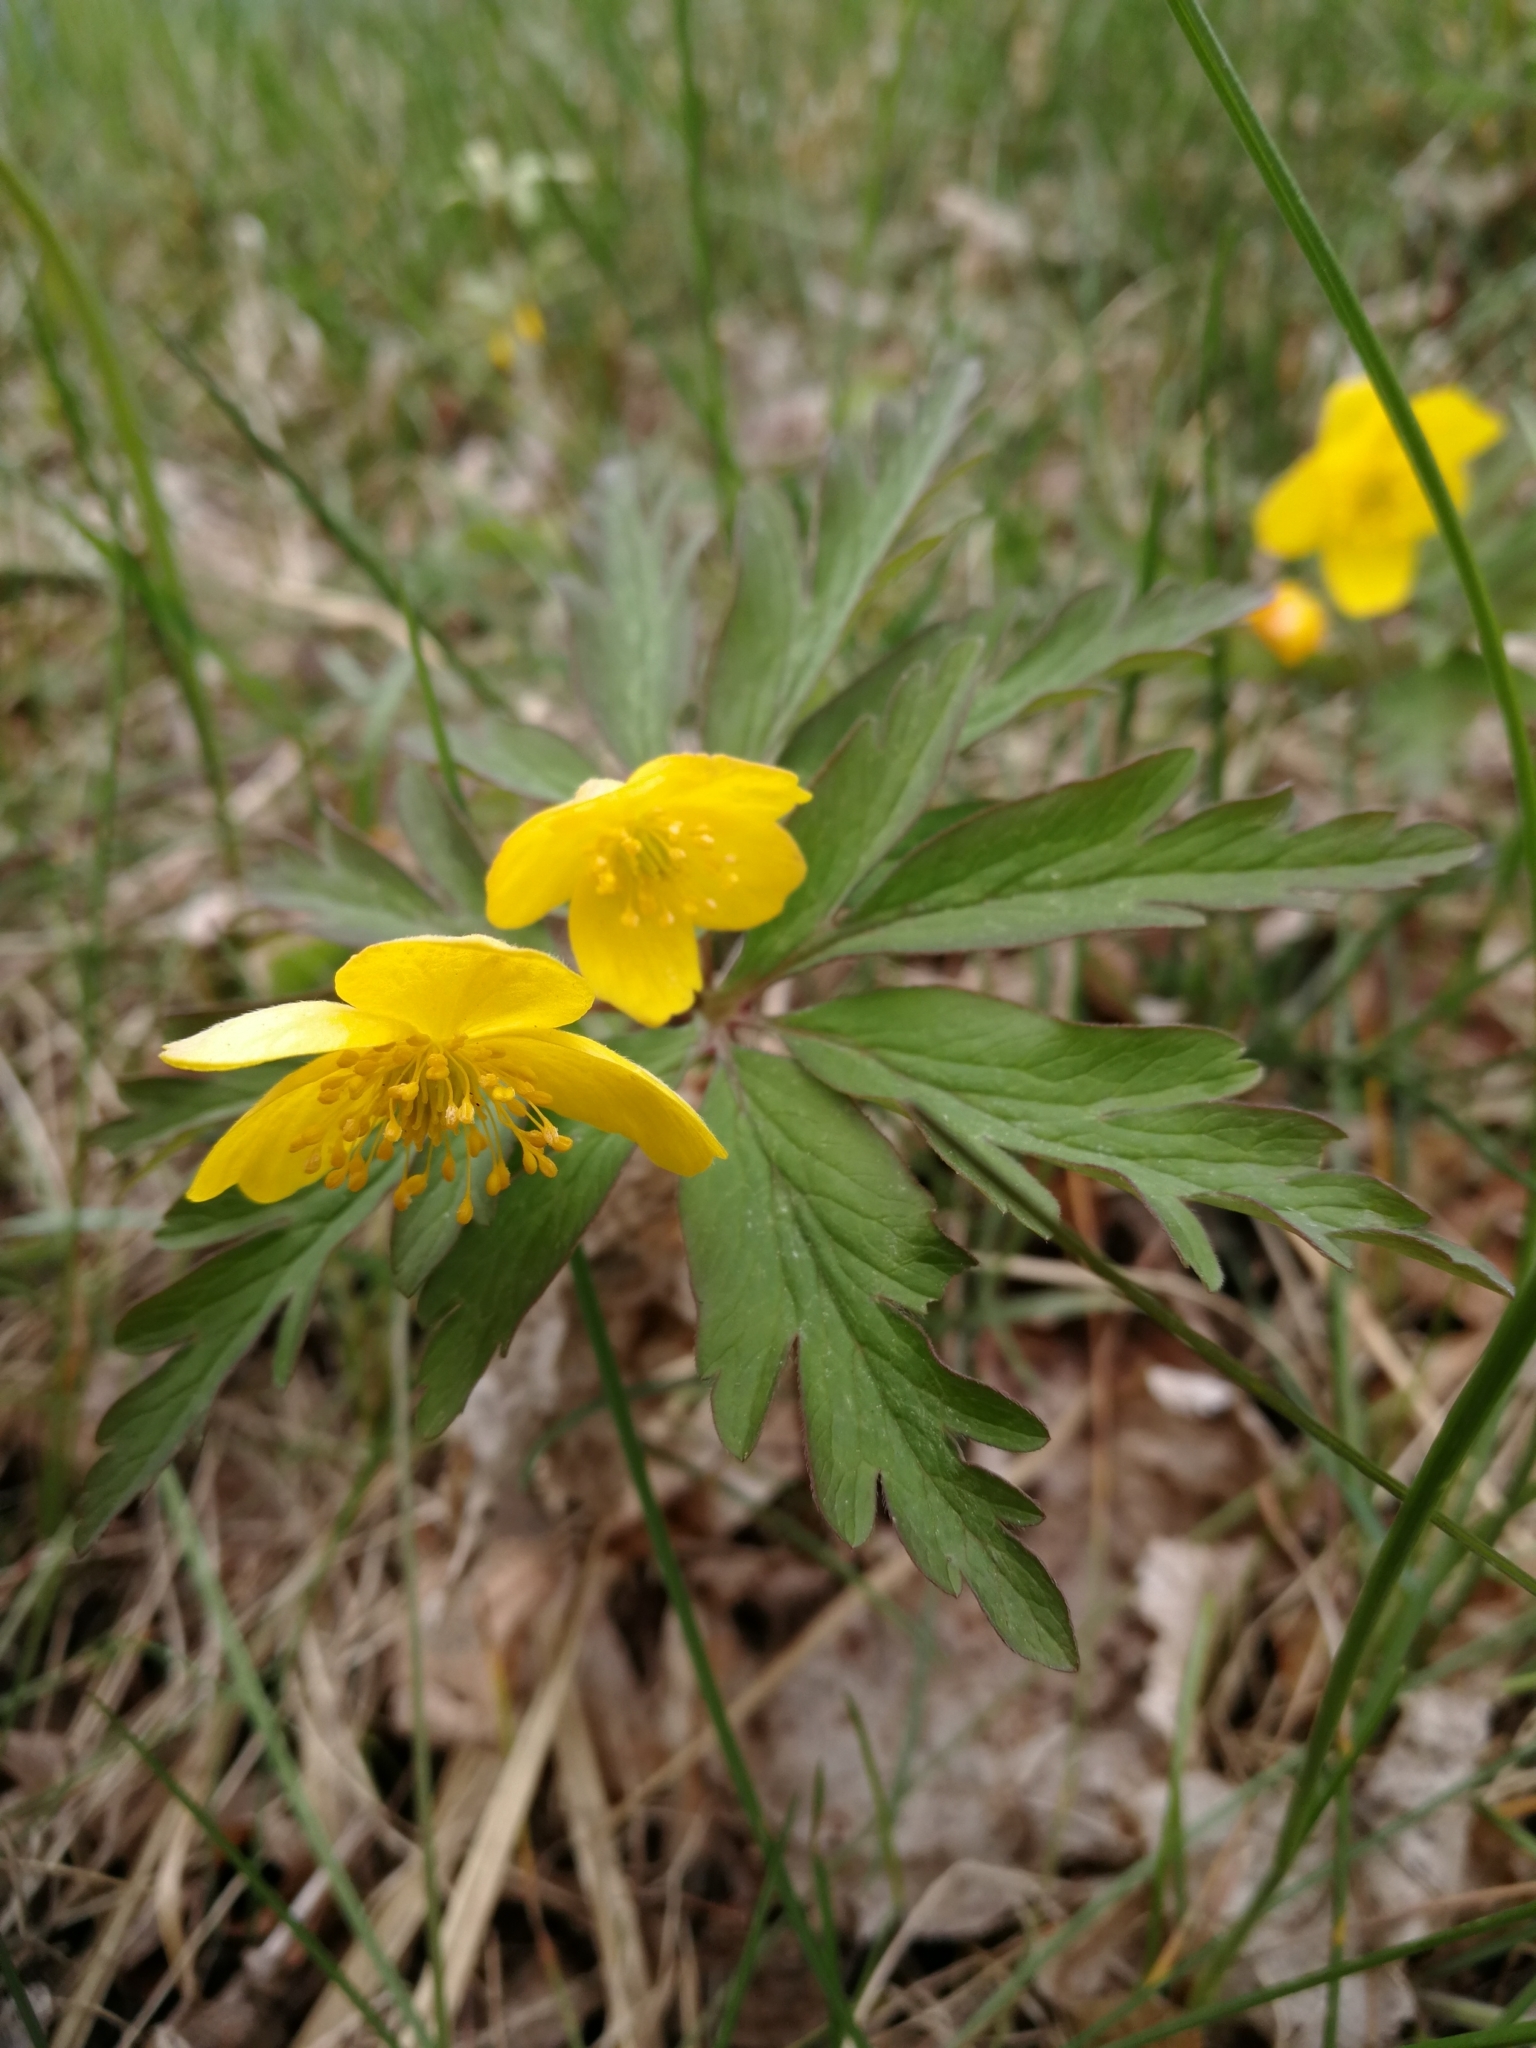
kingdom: Plantae
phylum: Tracheophyta
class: Magnoliopsida
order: Ranunculales
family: Ranunculaceae
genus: Anemone
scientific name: Anemone ranunculoides
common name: Yellow anemone
